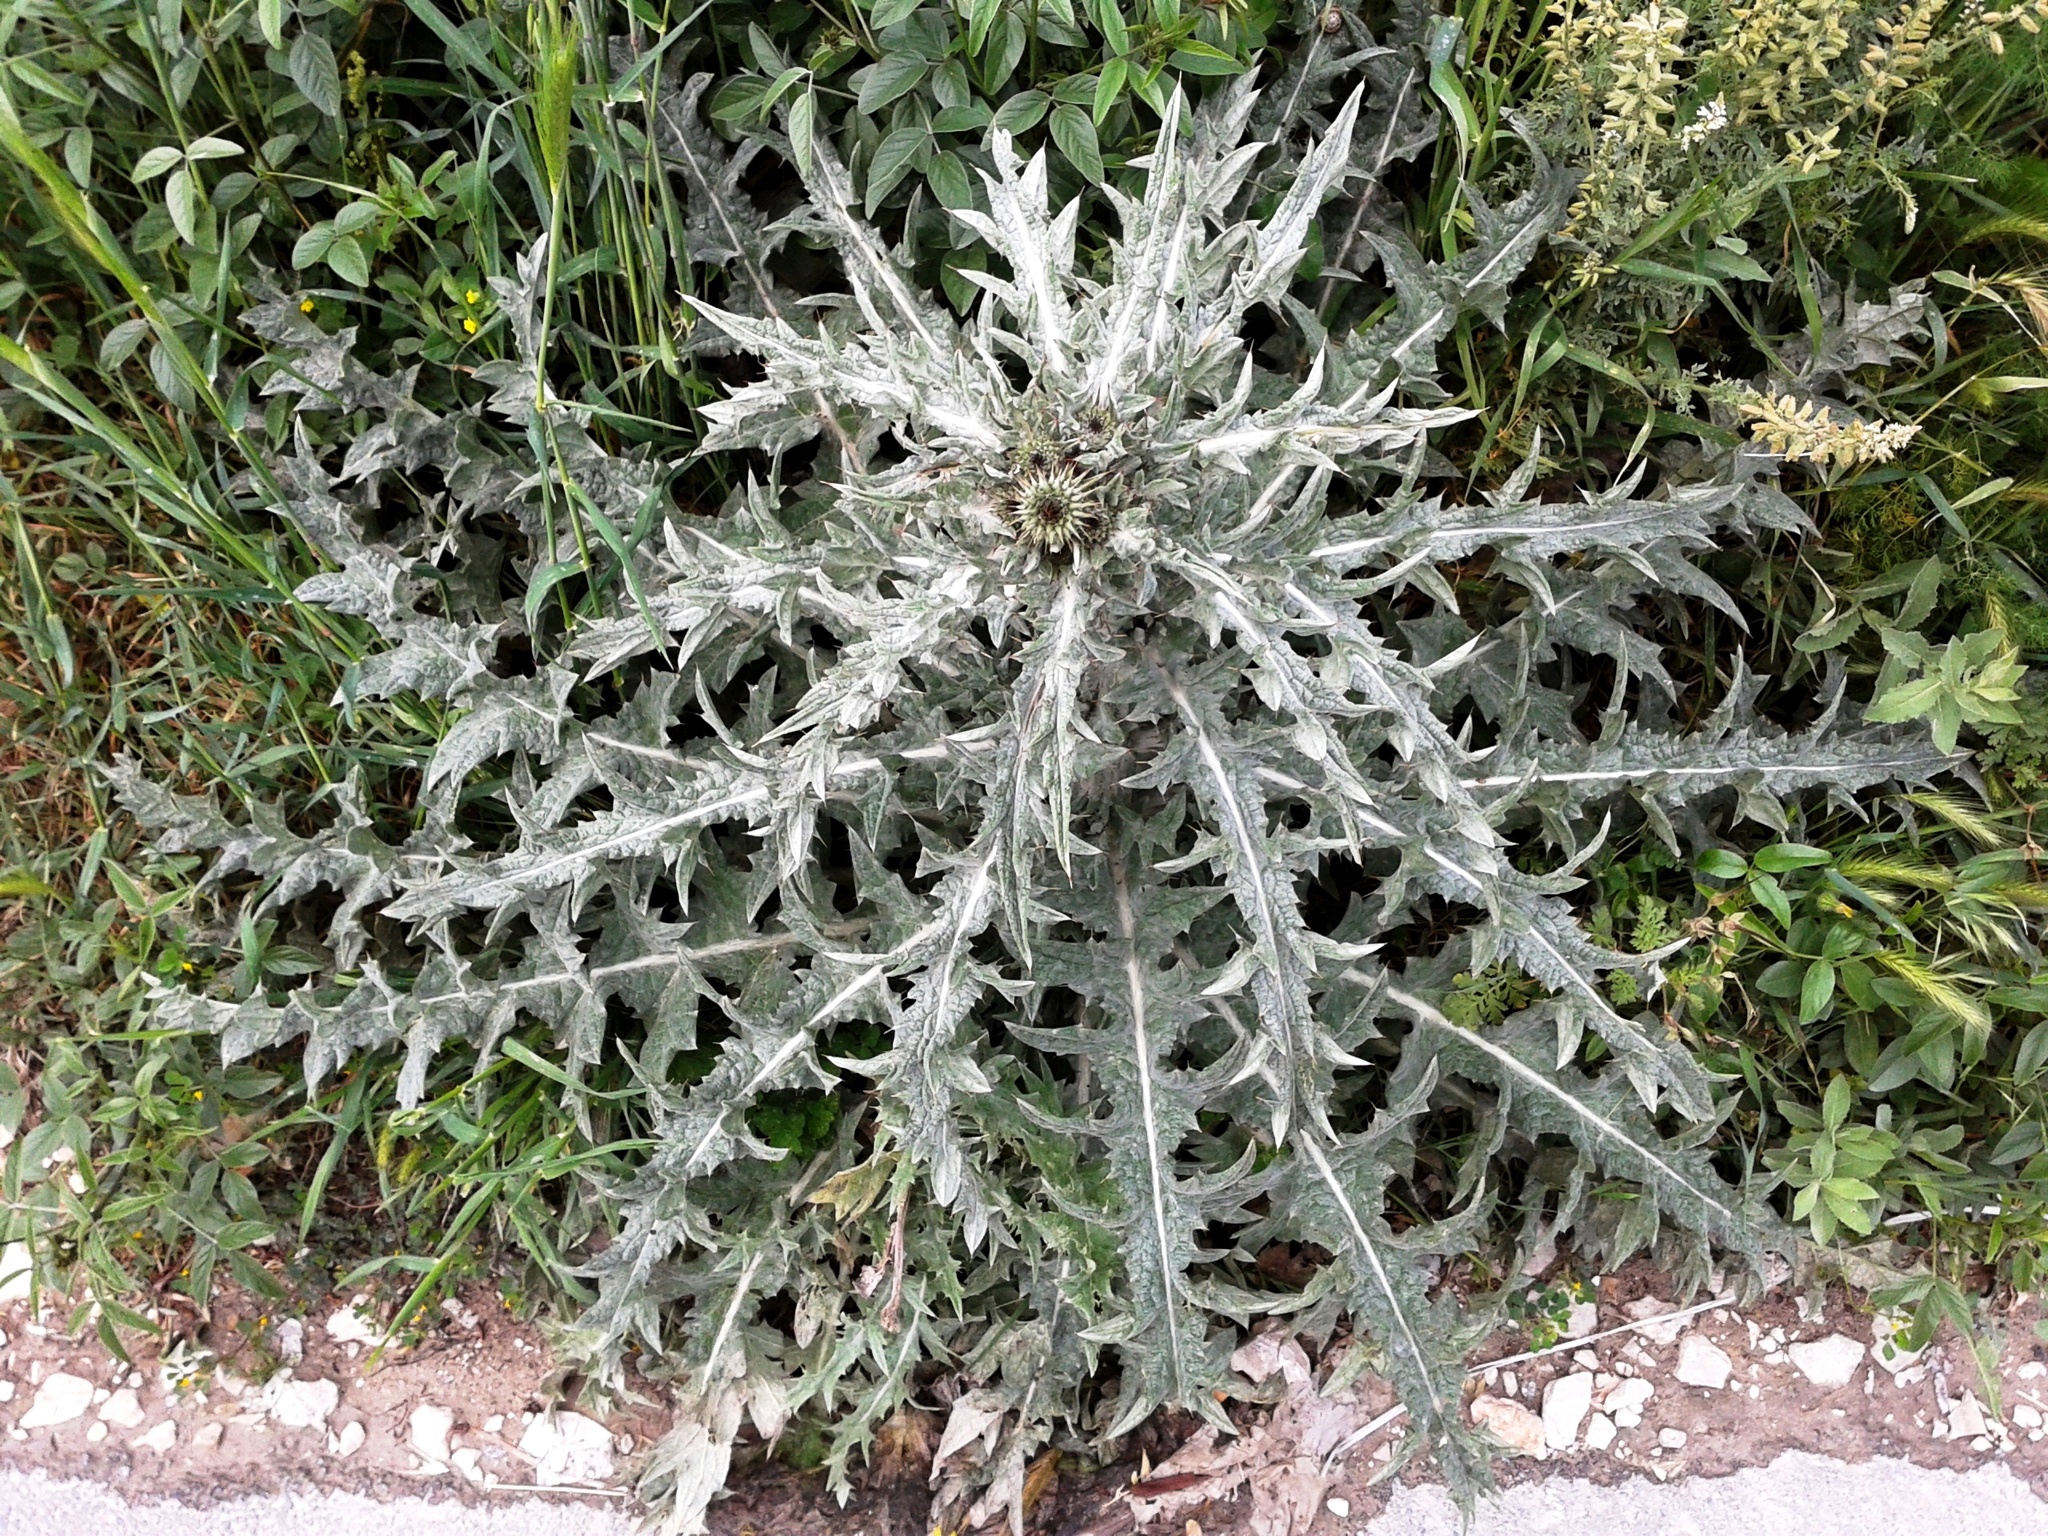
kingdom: Plantae
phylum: Tracheophyta
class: Magnoliopsida
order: Asterales
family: Asteraceae
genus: Onopordum
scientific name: Onopordum illyricum
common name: Illyrian thistle
